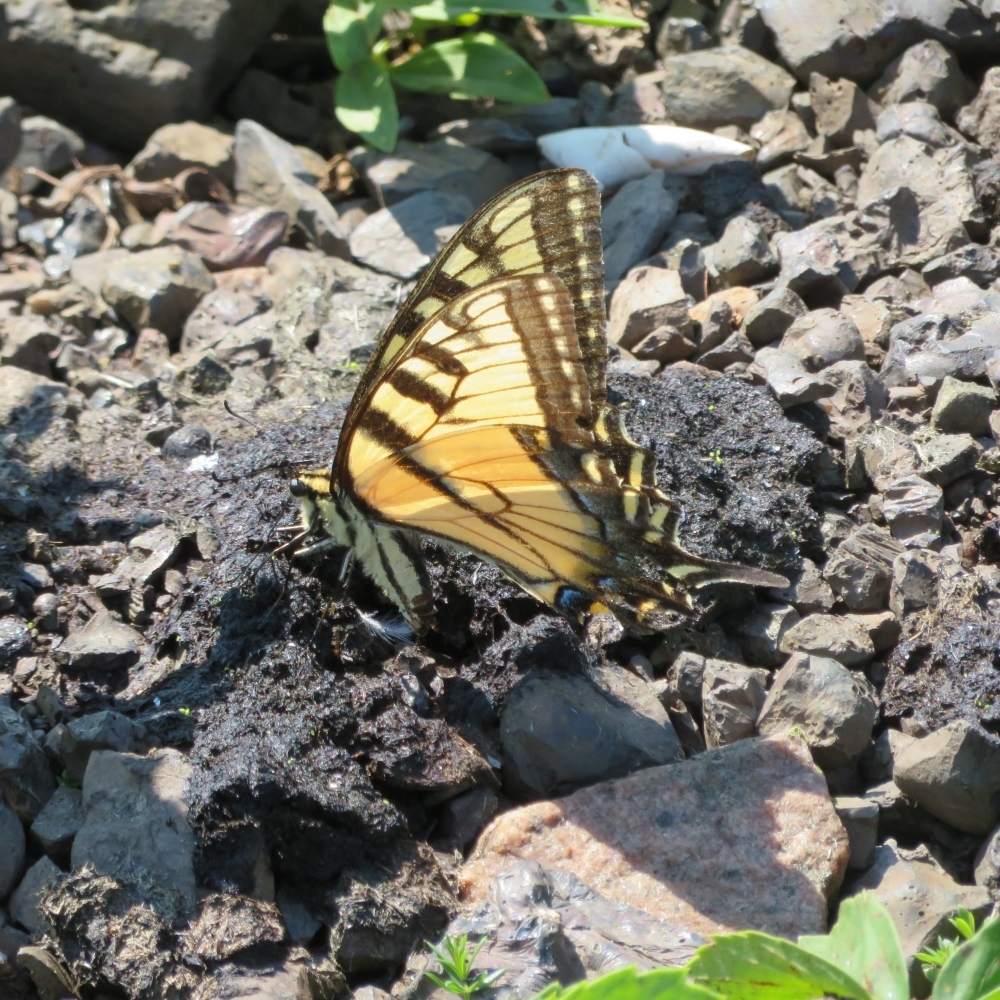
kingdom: Animalia
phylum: Arthropoda
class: Insecta
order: Lepidoptera
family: Papilionidae
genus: Papilio
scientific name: Papilio
